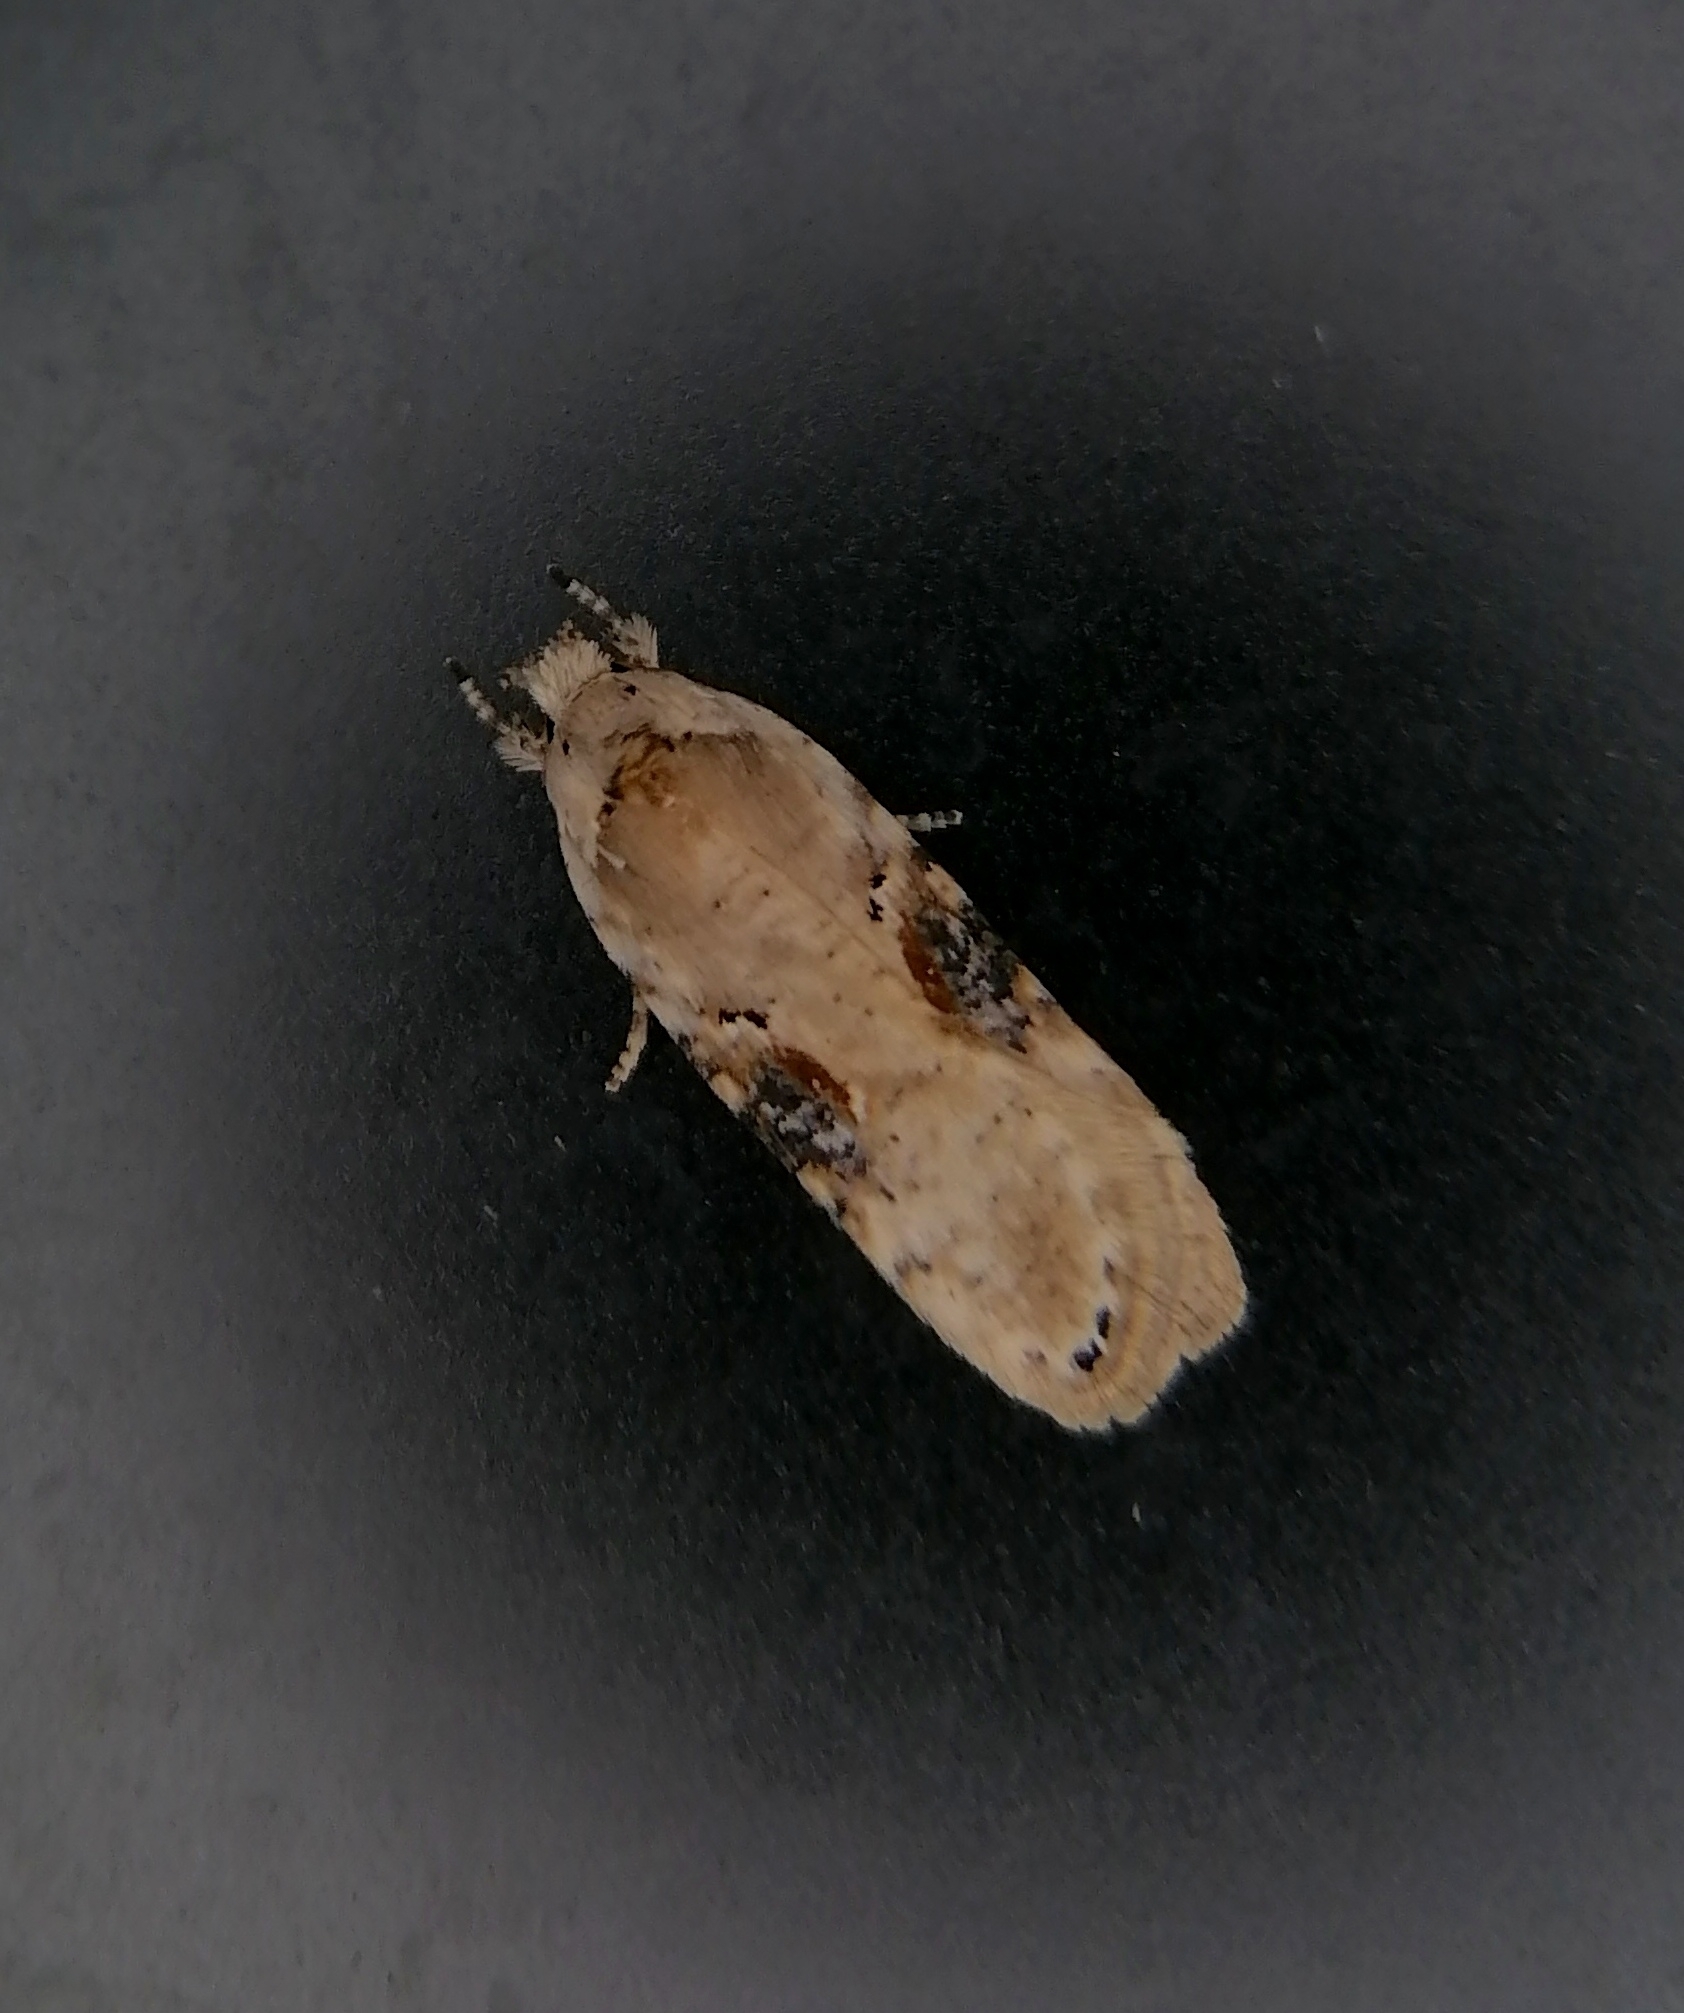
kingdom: Animalia
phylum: Arthropoda
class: Insecta
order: Lepidoptera
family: Depressariidae
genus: Agonopterix
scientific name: Agonopterix alstroemeriana
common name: Moth
